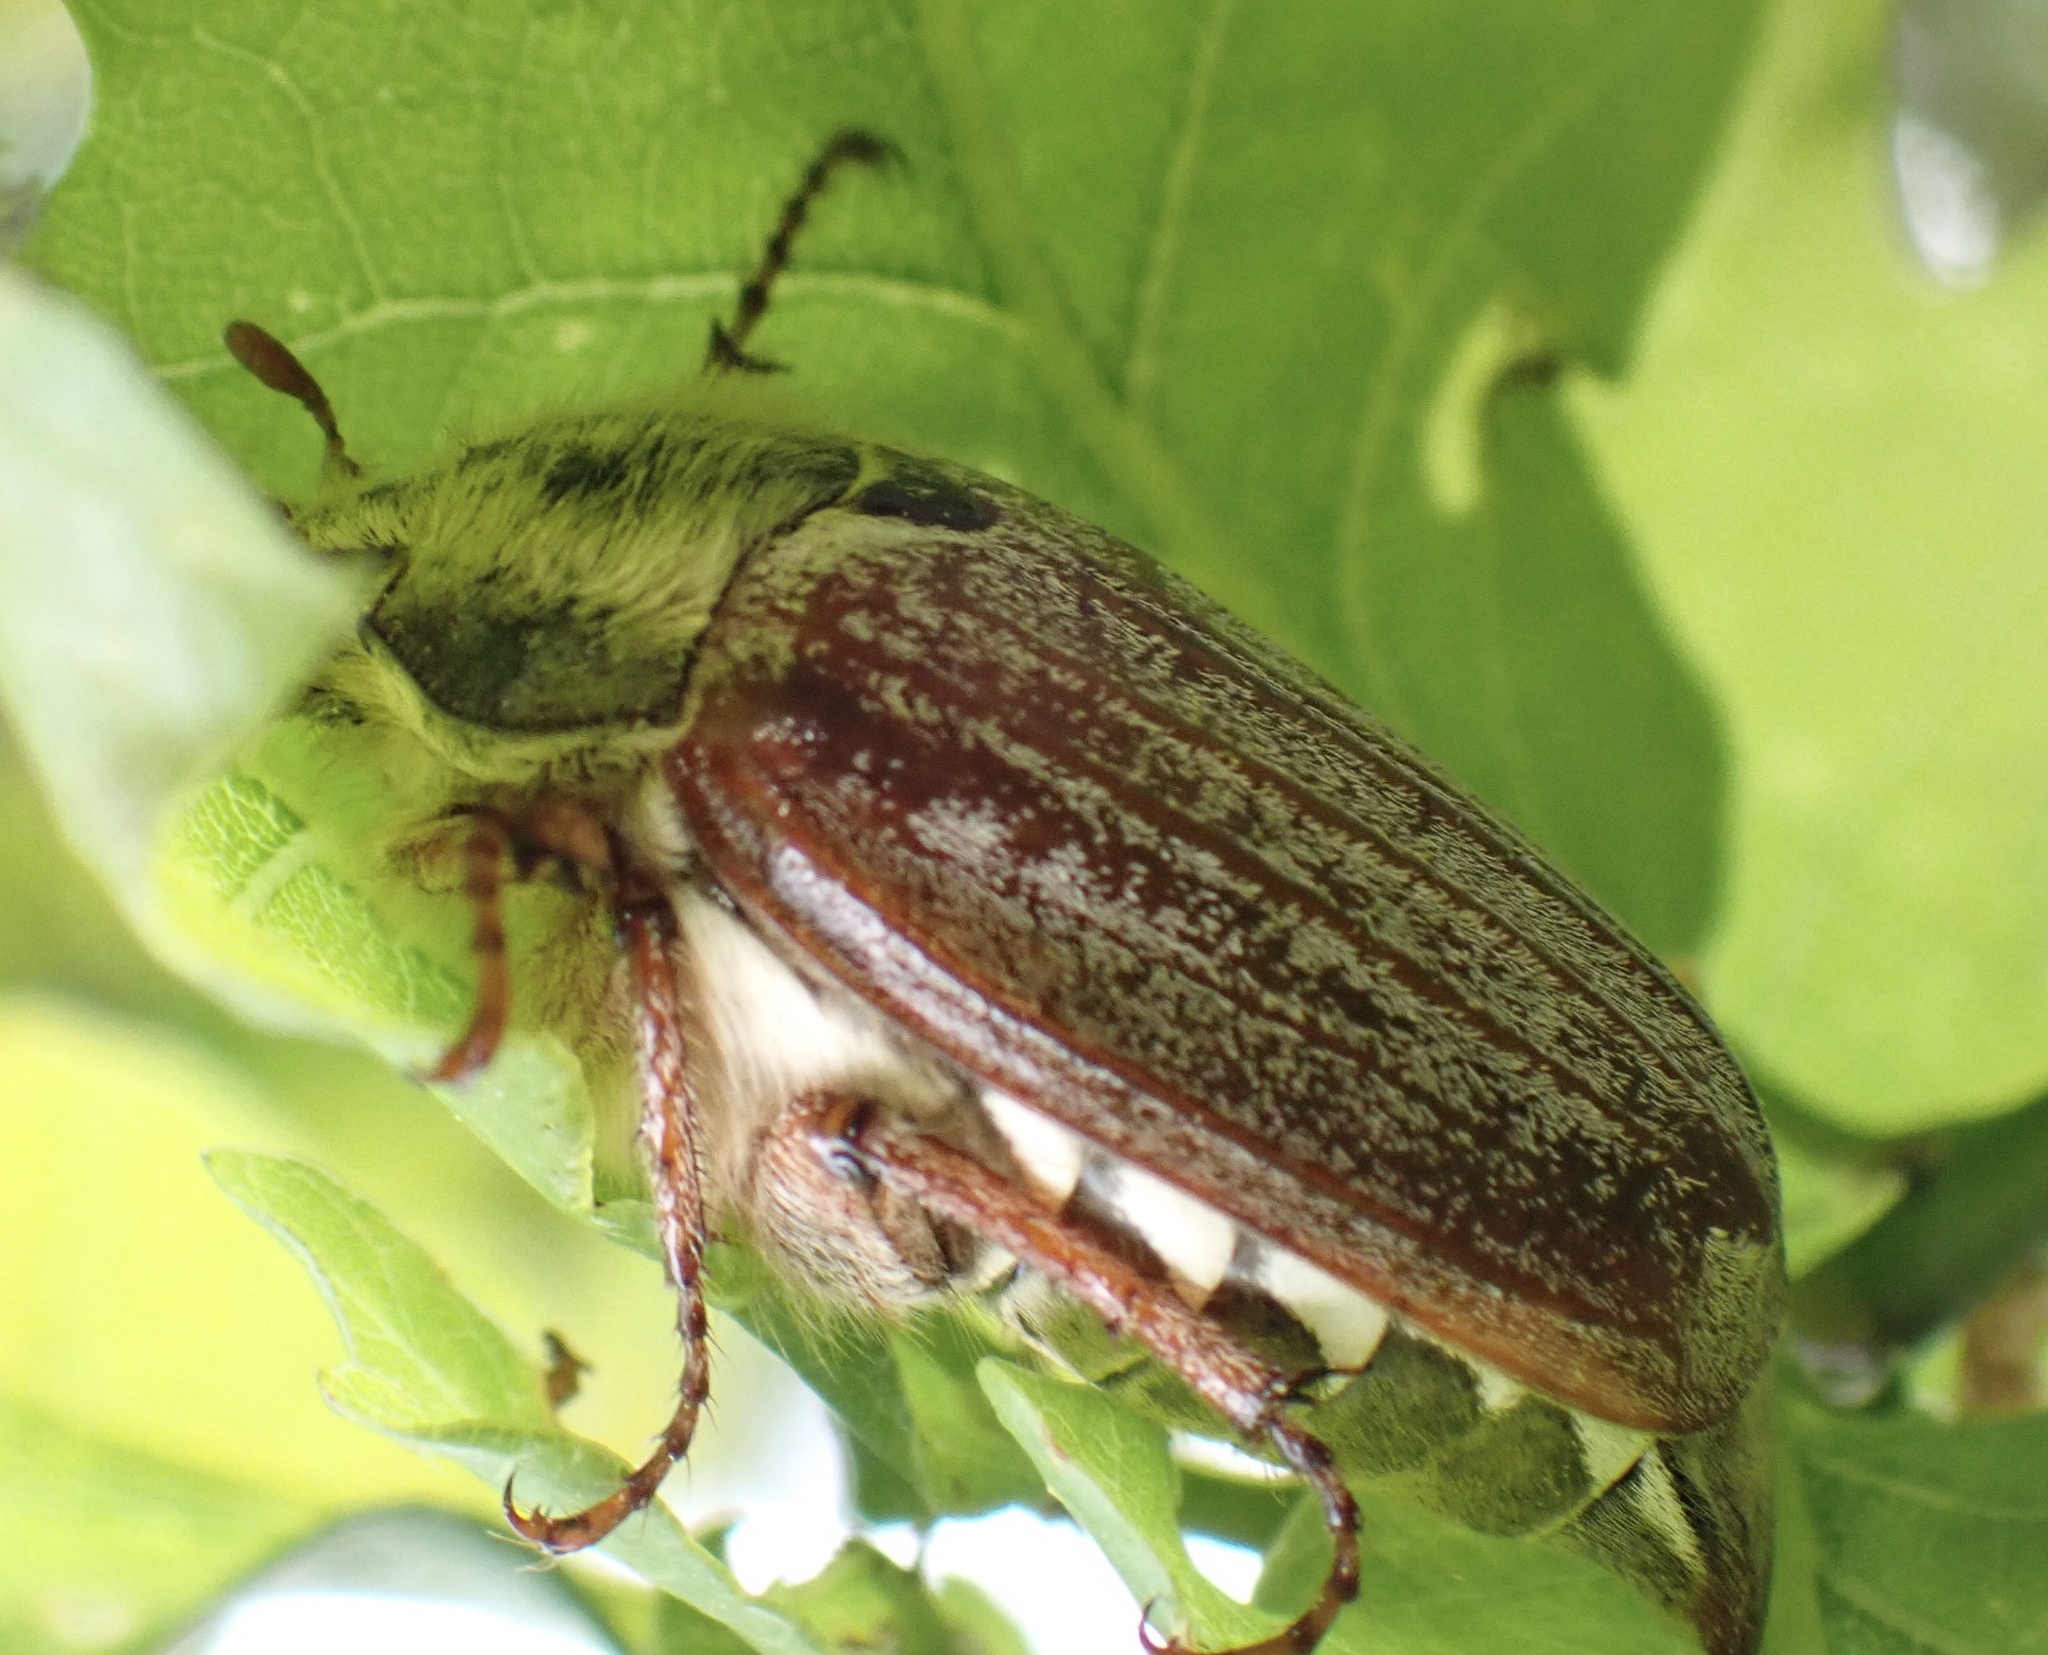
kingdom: Animalia
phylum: Arthropoda
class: Insecta
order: Coleoptera
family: Scarabaeidae
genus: Melolontha
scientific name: Melolontha melolontha
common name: Cockchafer maybeetle
